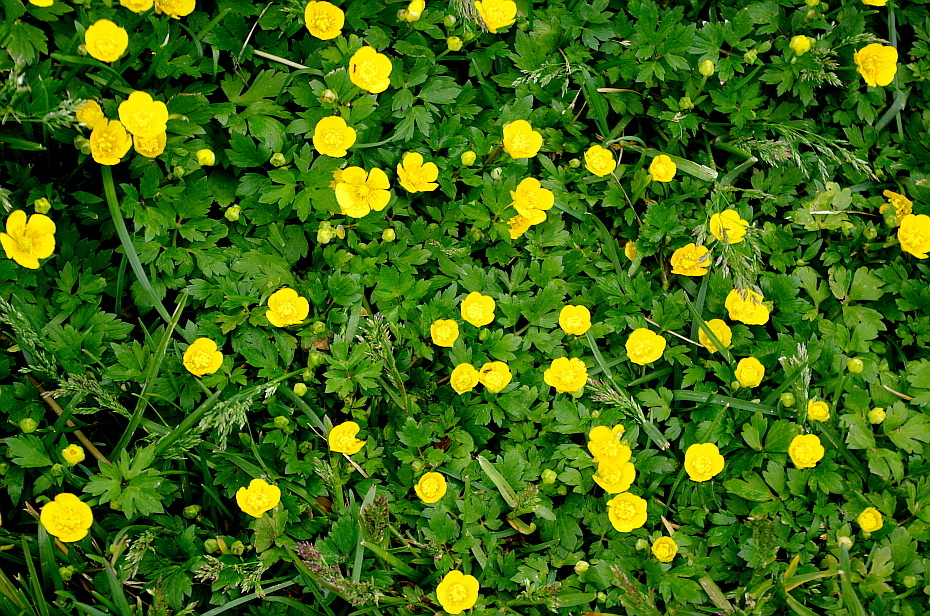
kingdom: Plantae
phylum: Tracheophyta
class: Magnoliopsida
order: Ranunculales
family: Ranunculaceae
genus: Ranunculus
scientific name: Ranunculus repens
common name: Creeping buttercup
